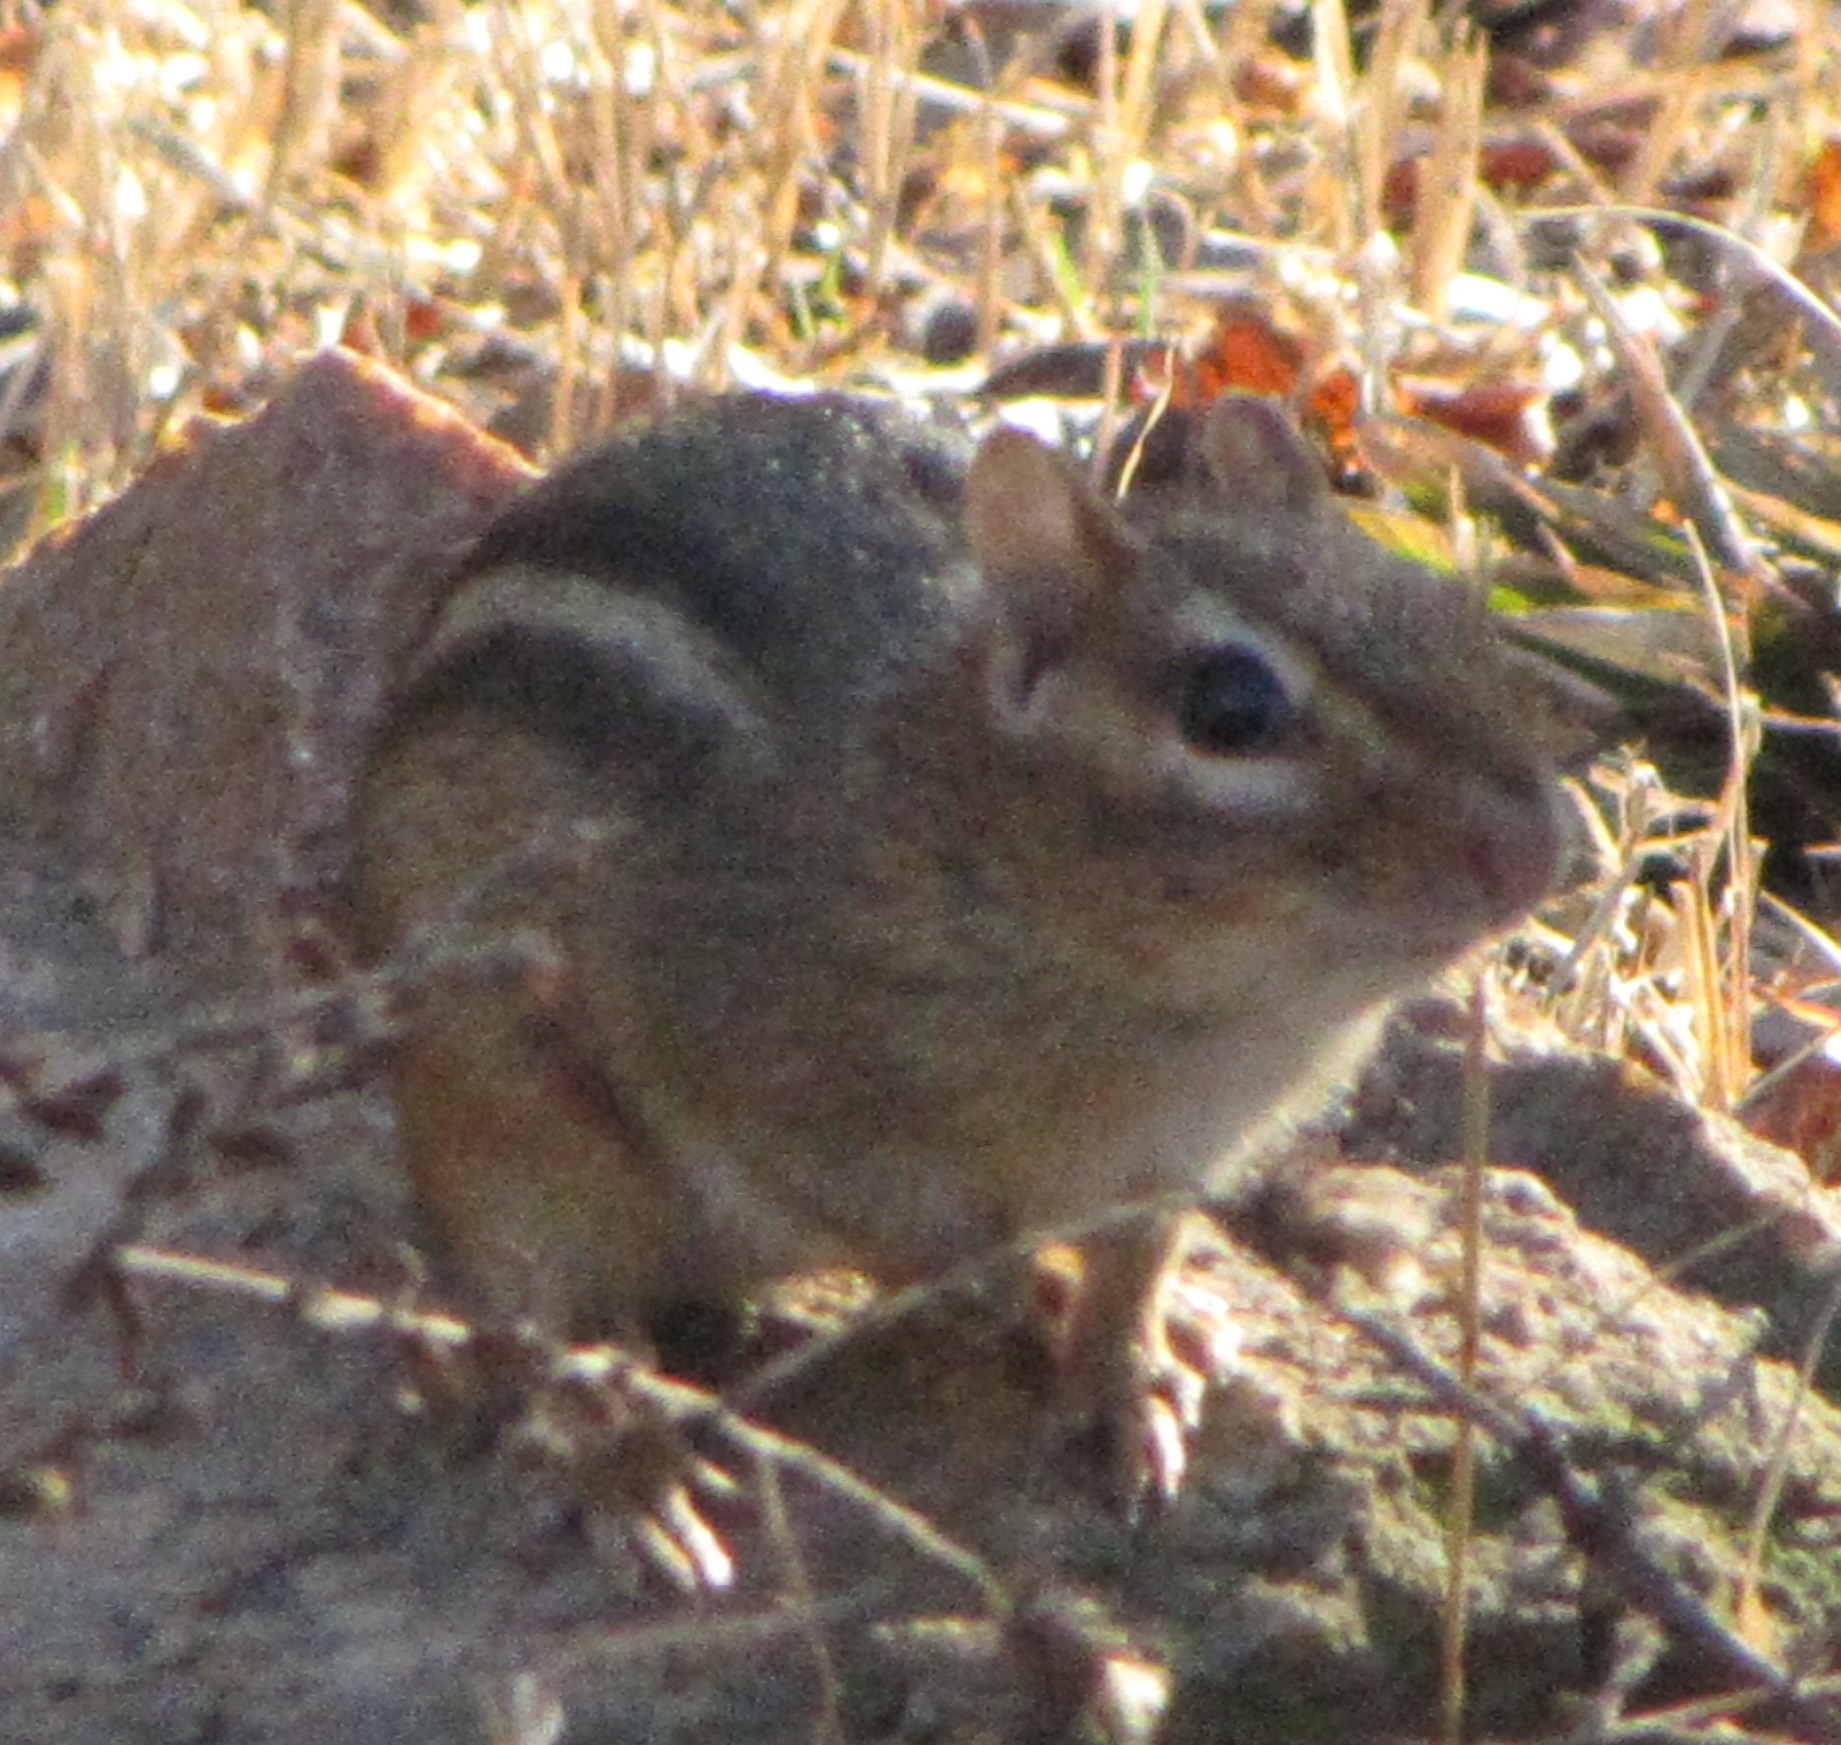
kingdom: Animalia
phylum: Chordata
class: Mammalia
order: Rodentia
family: Sciuridae
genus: Tamias
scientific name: Tamias striatus
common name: Eastern chipmunk
